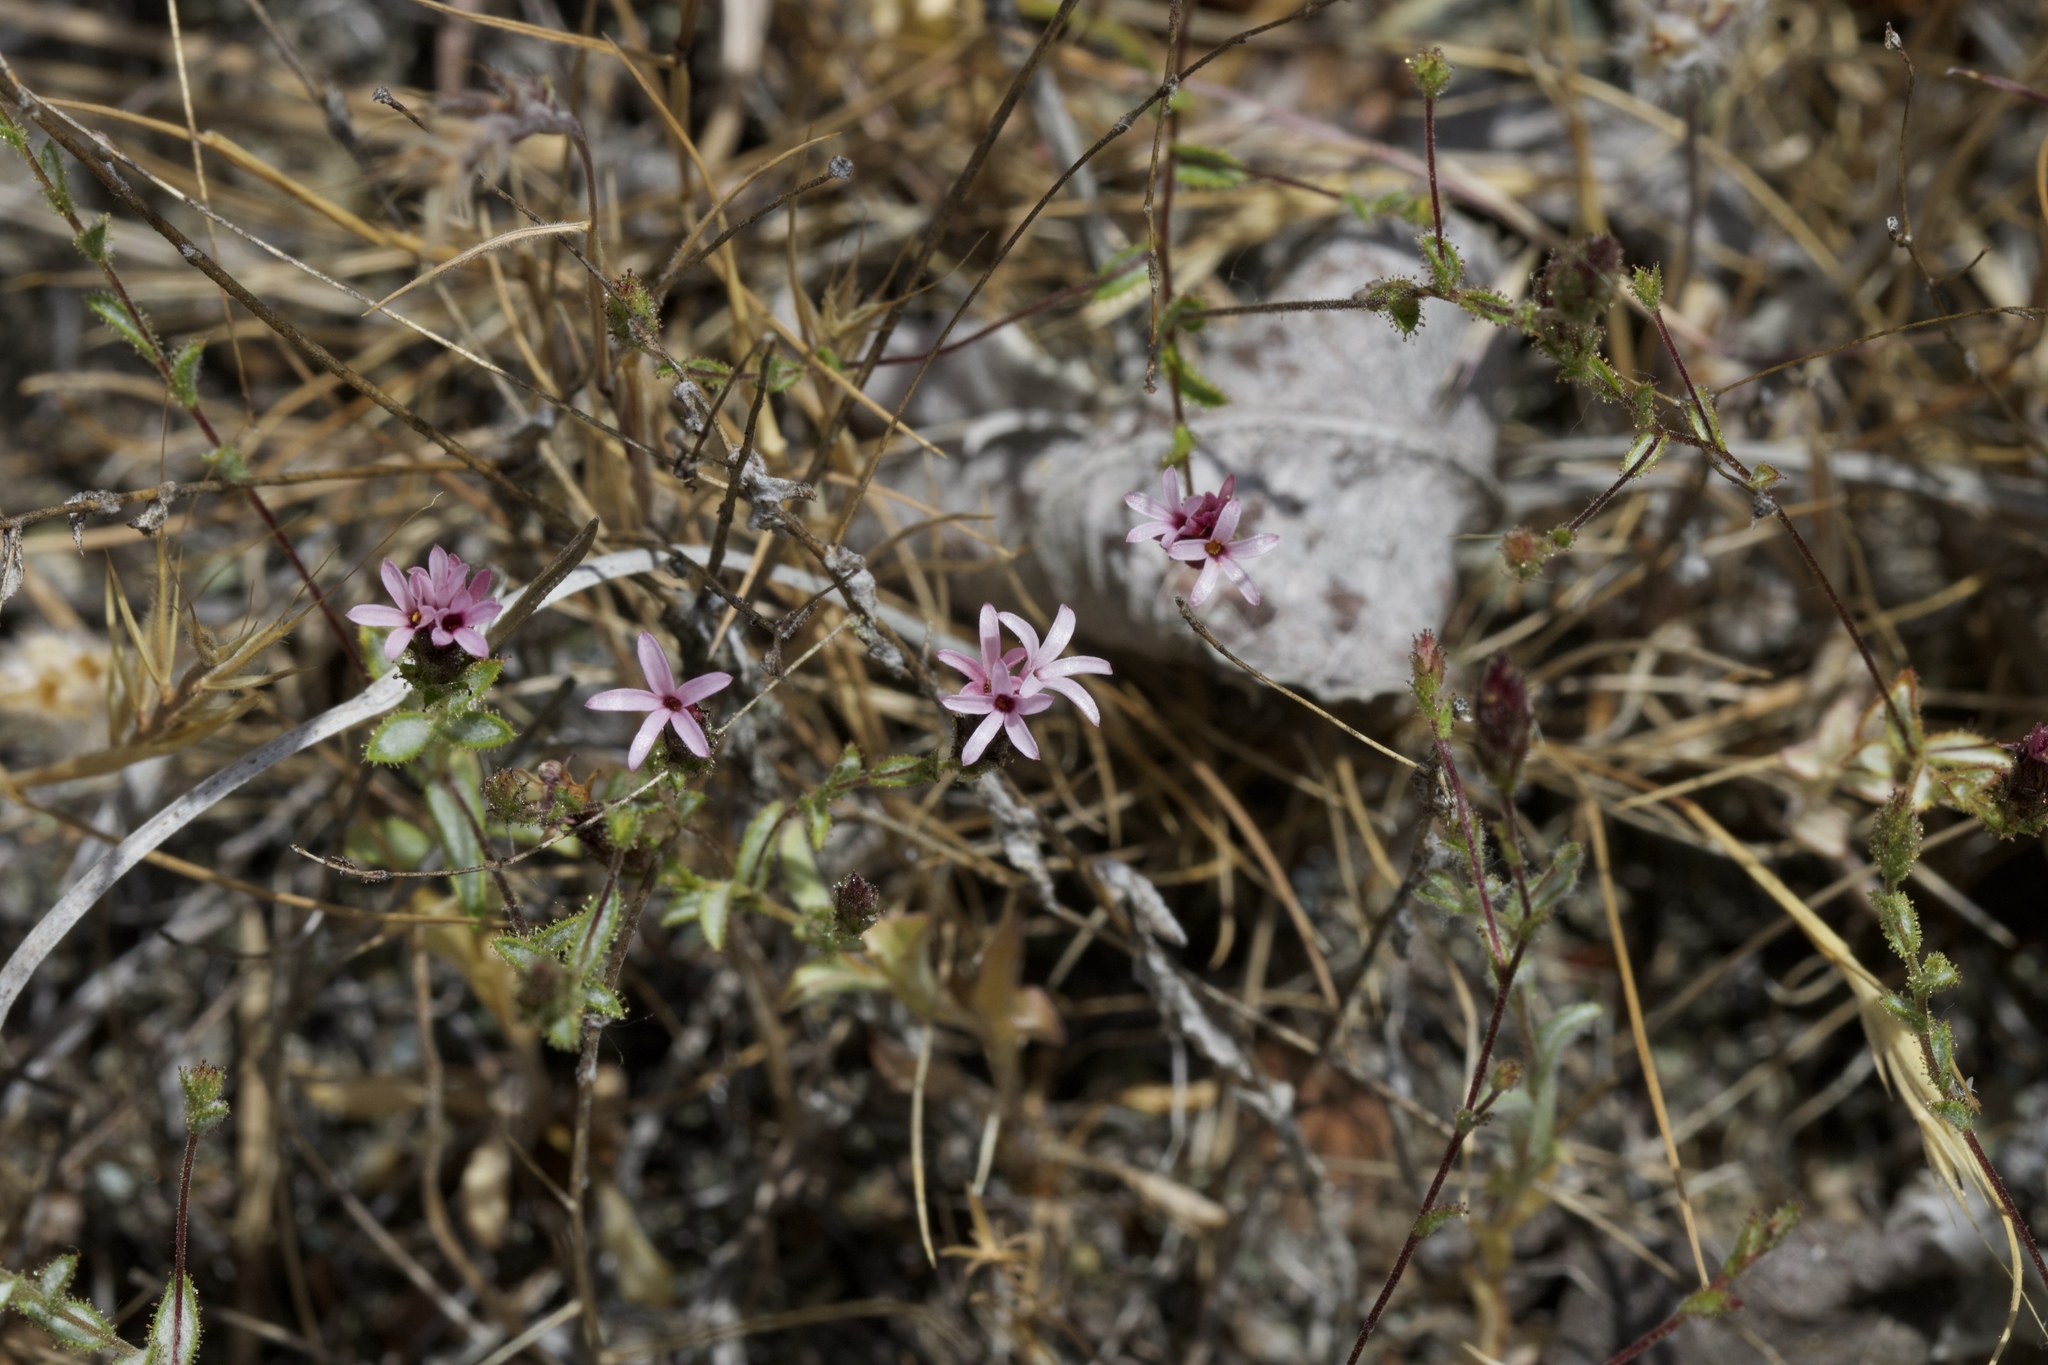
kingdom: Plantae
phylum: Tracheophyta
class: Magnoliopsida
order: Asterales
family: Asteraceae
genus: Lessingia
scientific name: Lessingia ramulosa
